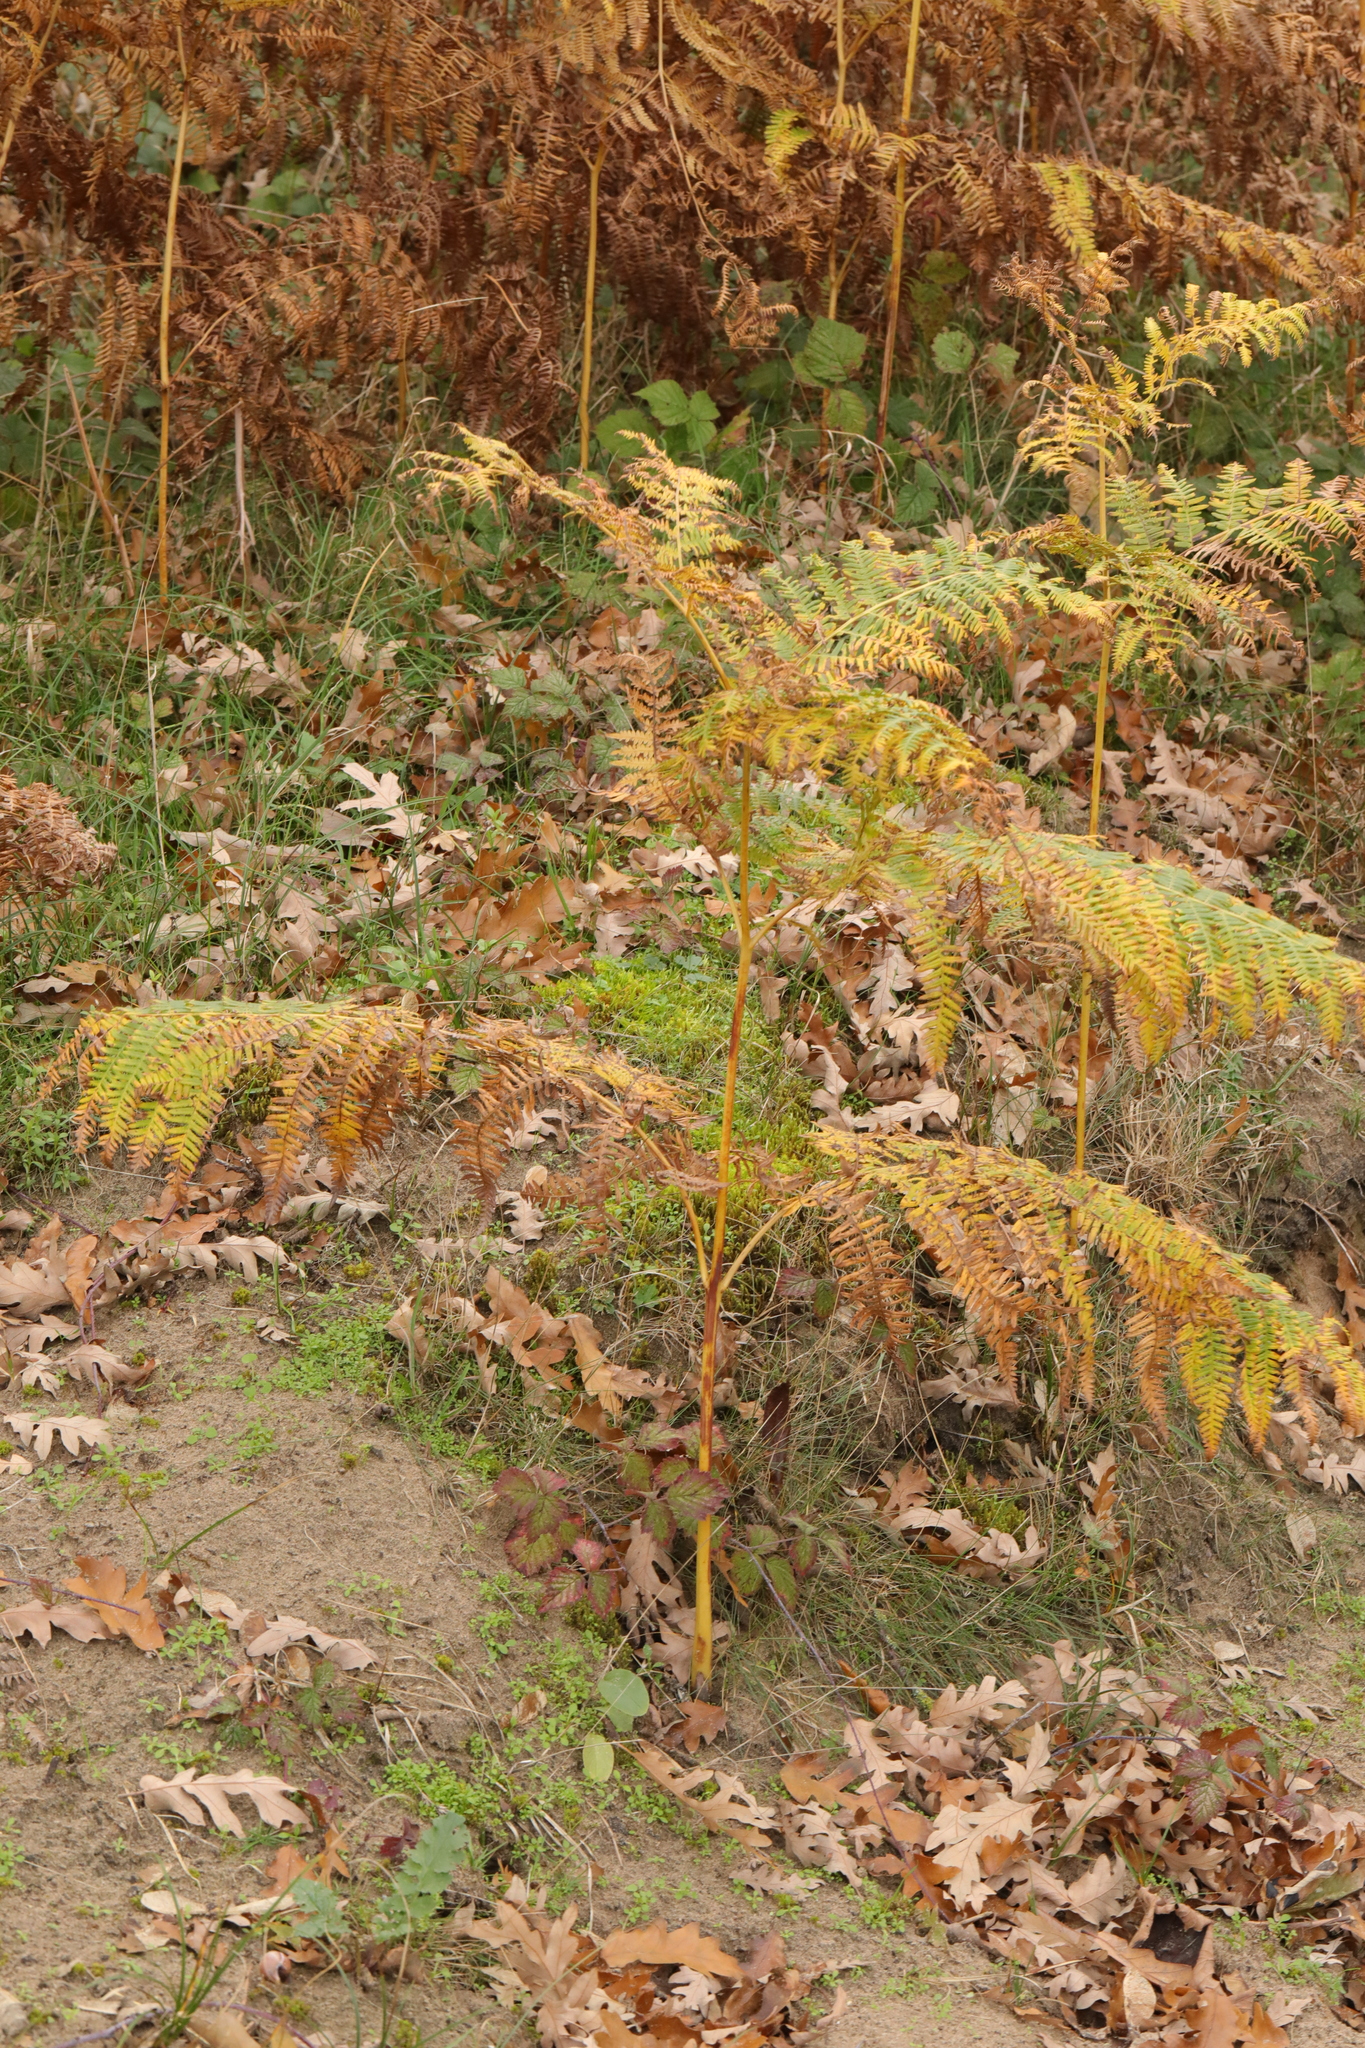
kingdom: Plantae
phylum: Tracheophyta
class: Polypodiopsida
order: Polypodiales
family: Dennstaedtiaceae
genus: Pteridium
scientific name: Pteridium aquilinum
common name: Bracken
